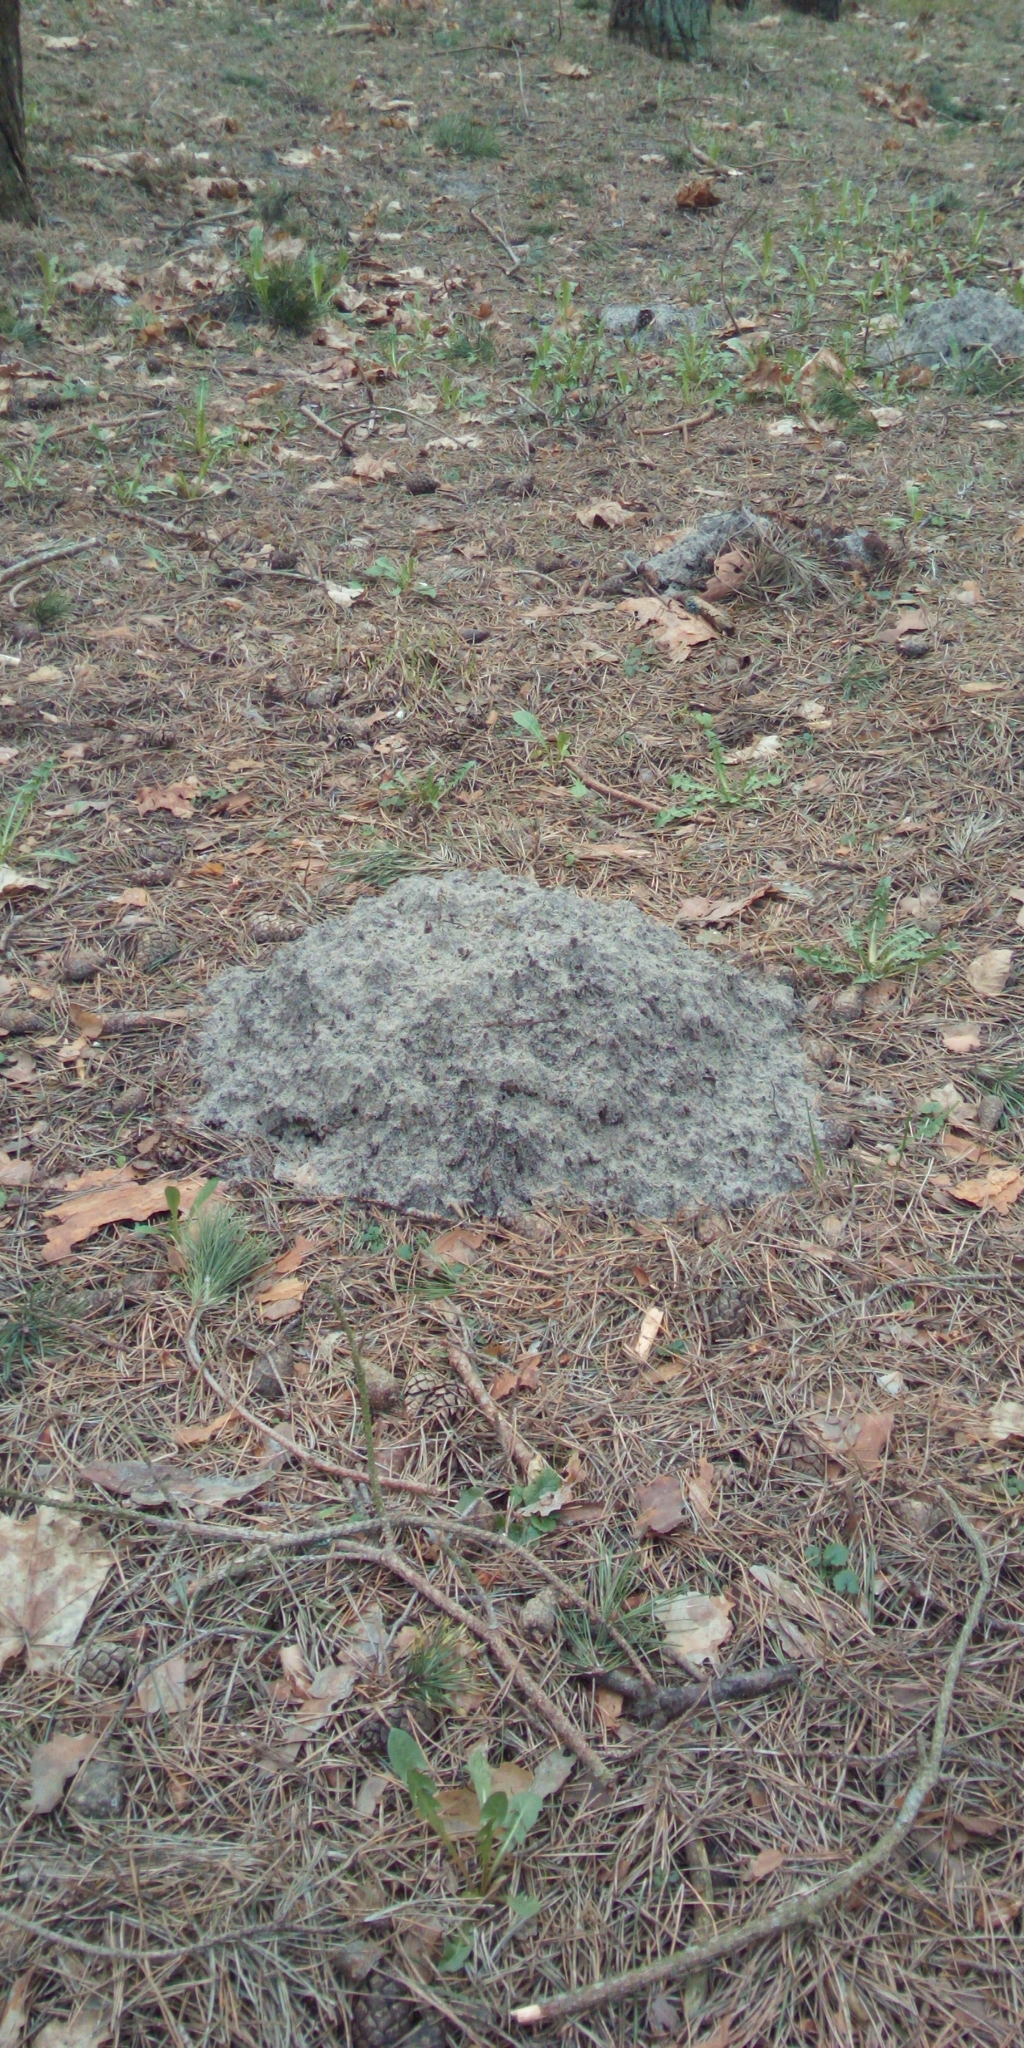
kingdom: Animalia
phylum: Chordata
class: Mammalia
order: Soricomorpha
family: Talpidae
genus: Talpa
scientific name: Talpa europaea
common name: European mole
